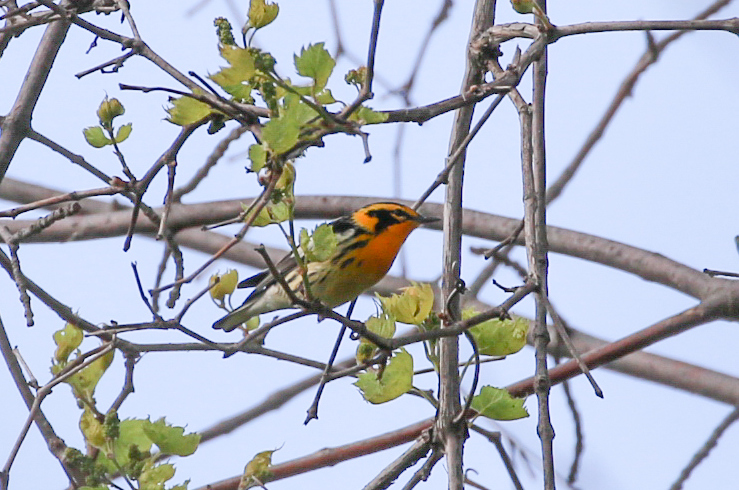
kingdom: Animalia
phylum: Chordata
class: Aves
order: Passeriformes
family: Parulidae
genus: Setophaga
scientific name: Setophaga fusca
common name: Blackburnian warbler
